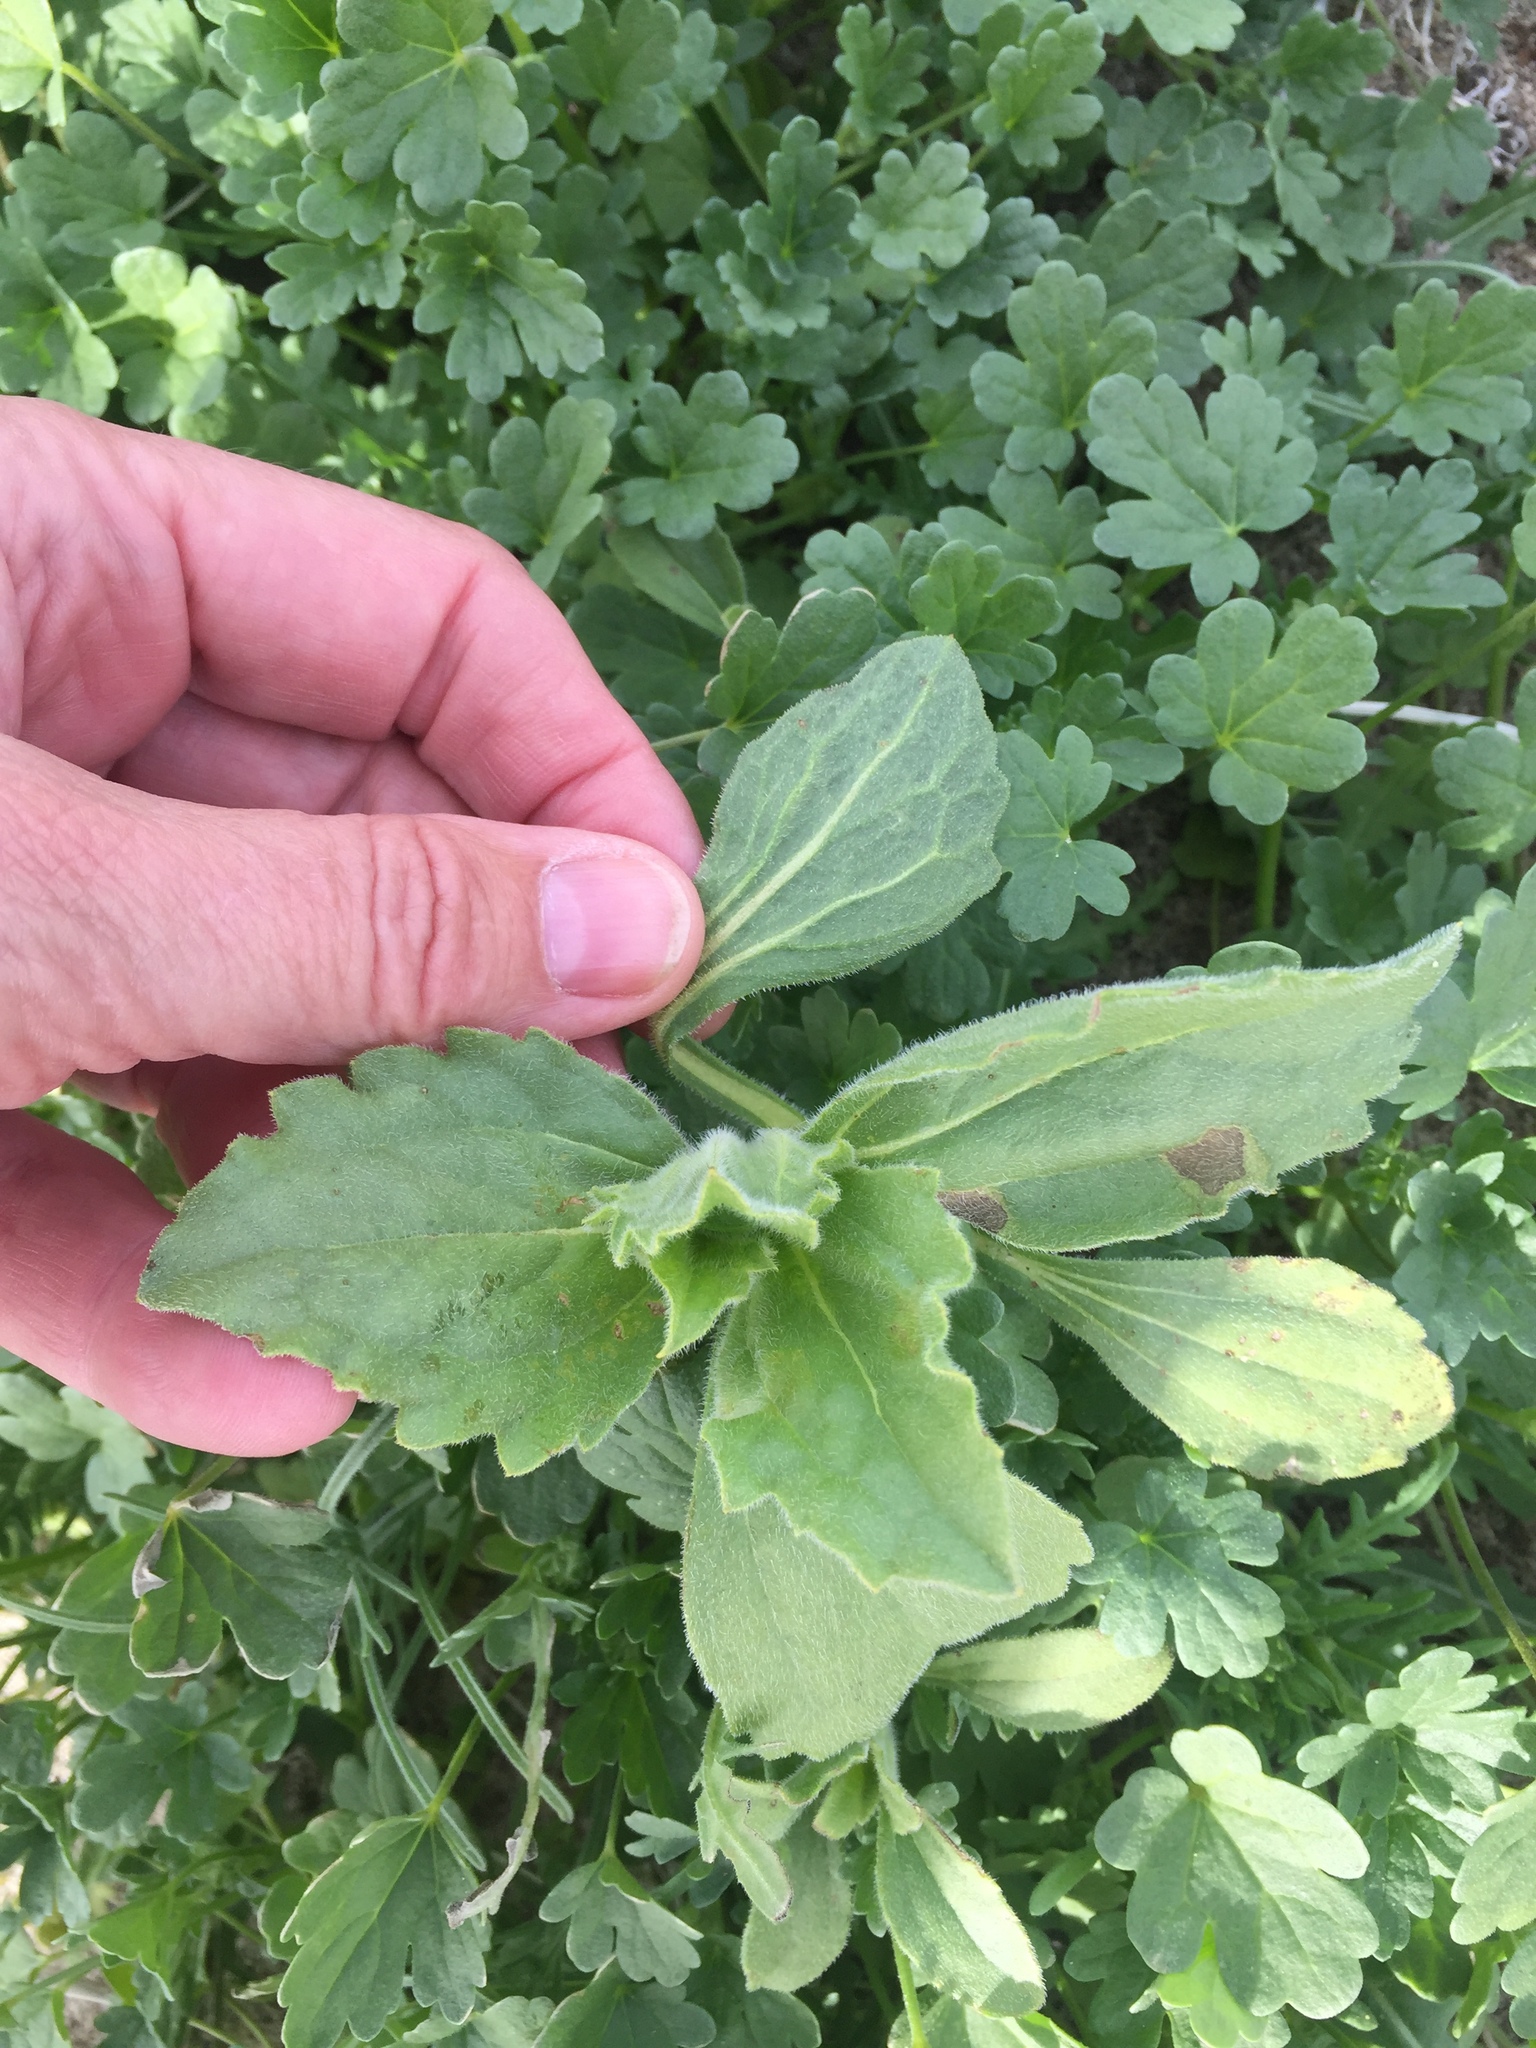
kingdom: Plantae
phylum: Tracheophyta
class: Magnoliopsida
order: Asterales
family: Asteraceae
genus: Geraea
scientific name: Geraea canescens
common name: Desert-gold
